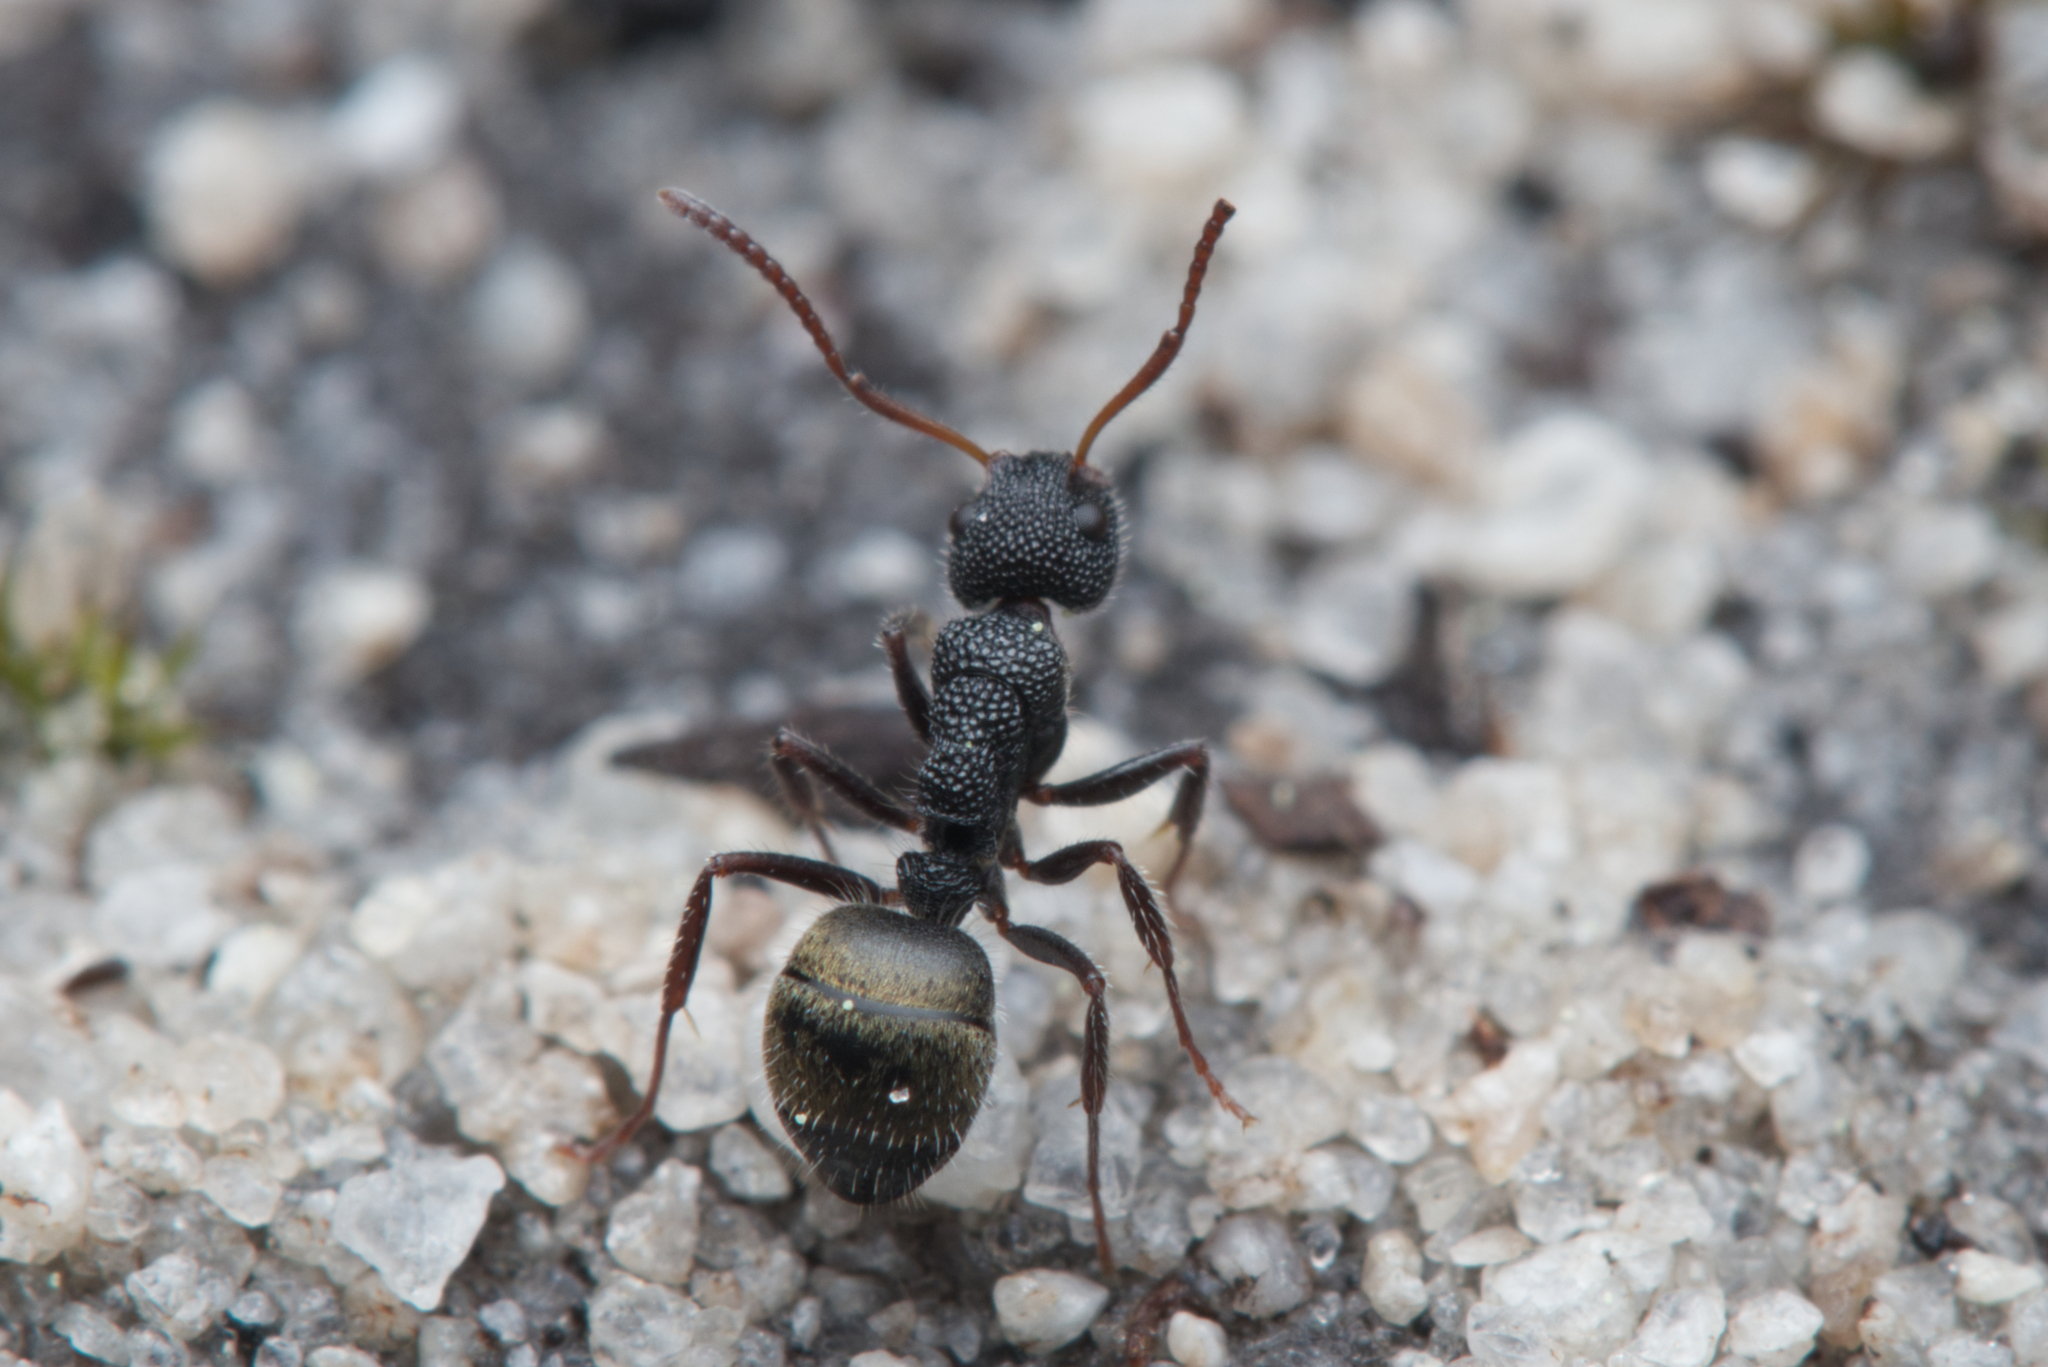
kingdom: Animalia
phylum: Arthropoda
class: Insecta
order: Hymenoptera
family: Formicidae
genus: Dolichoderus
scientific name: Dolichoderus scrobiculatus
